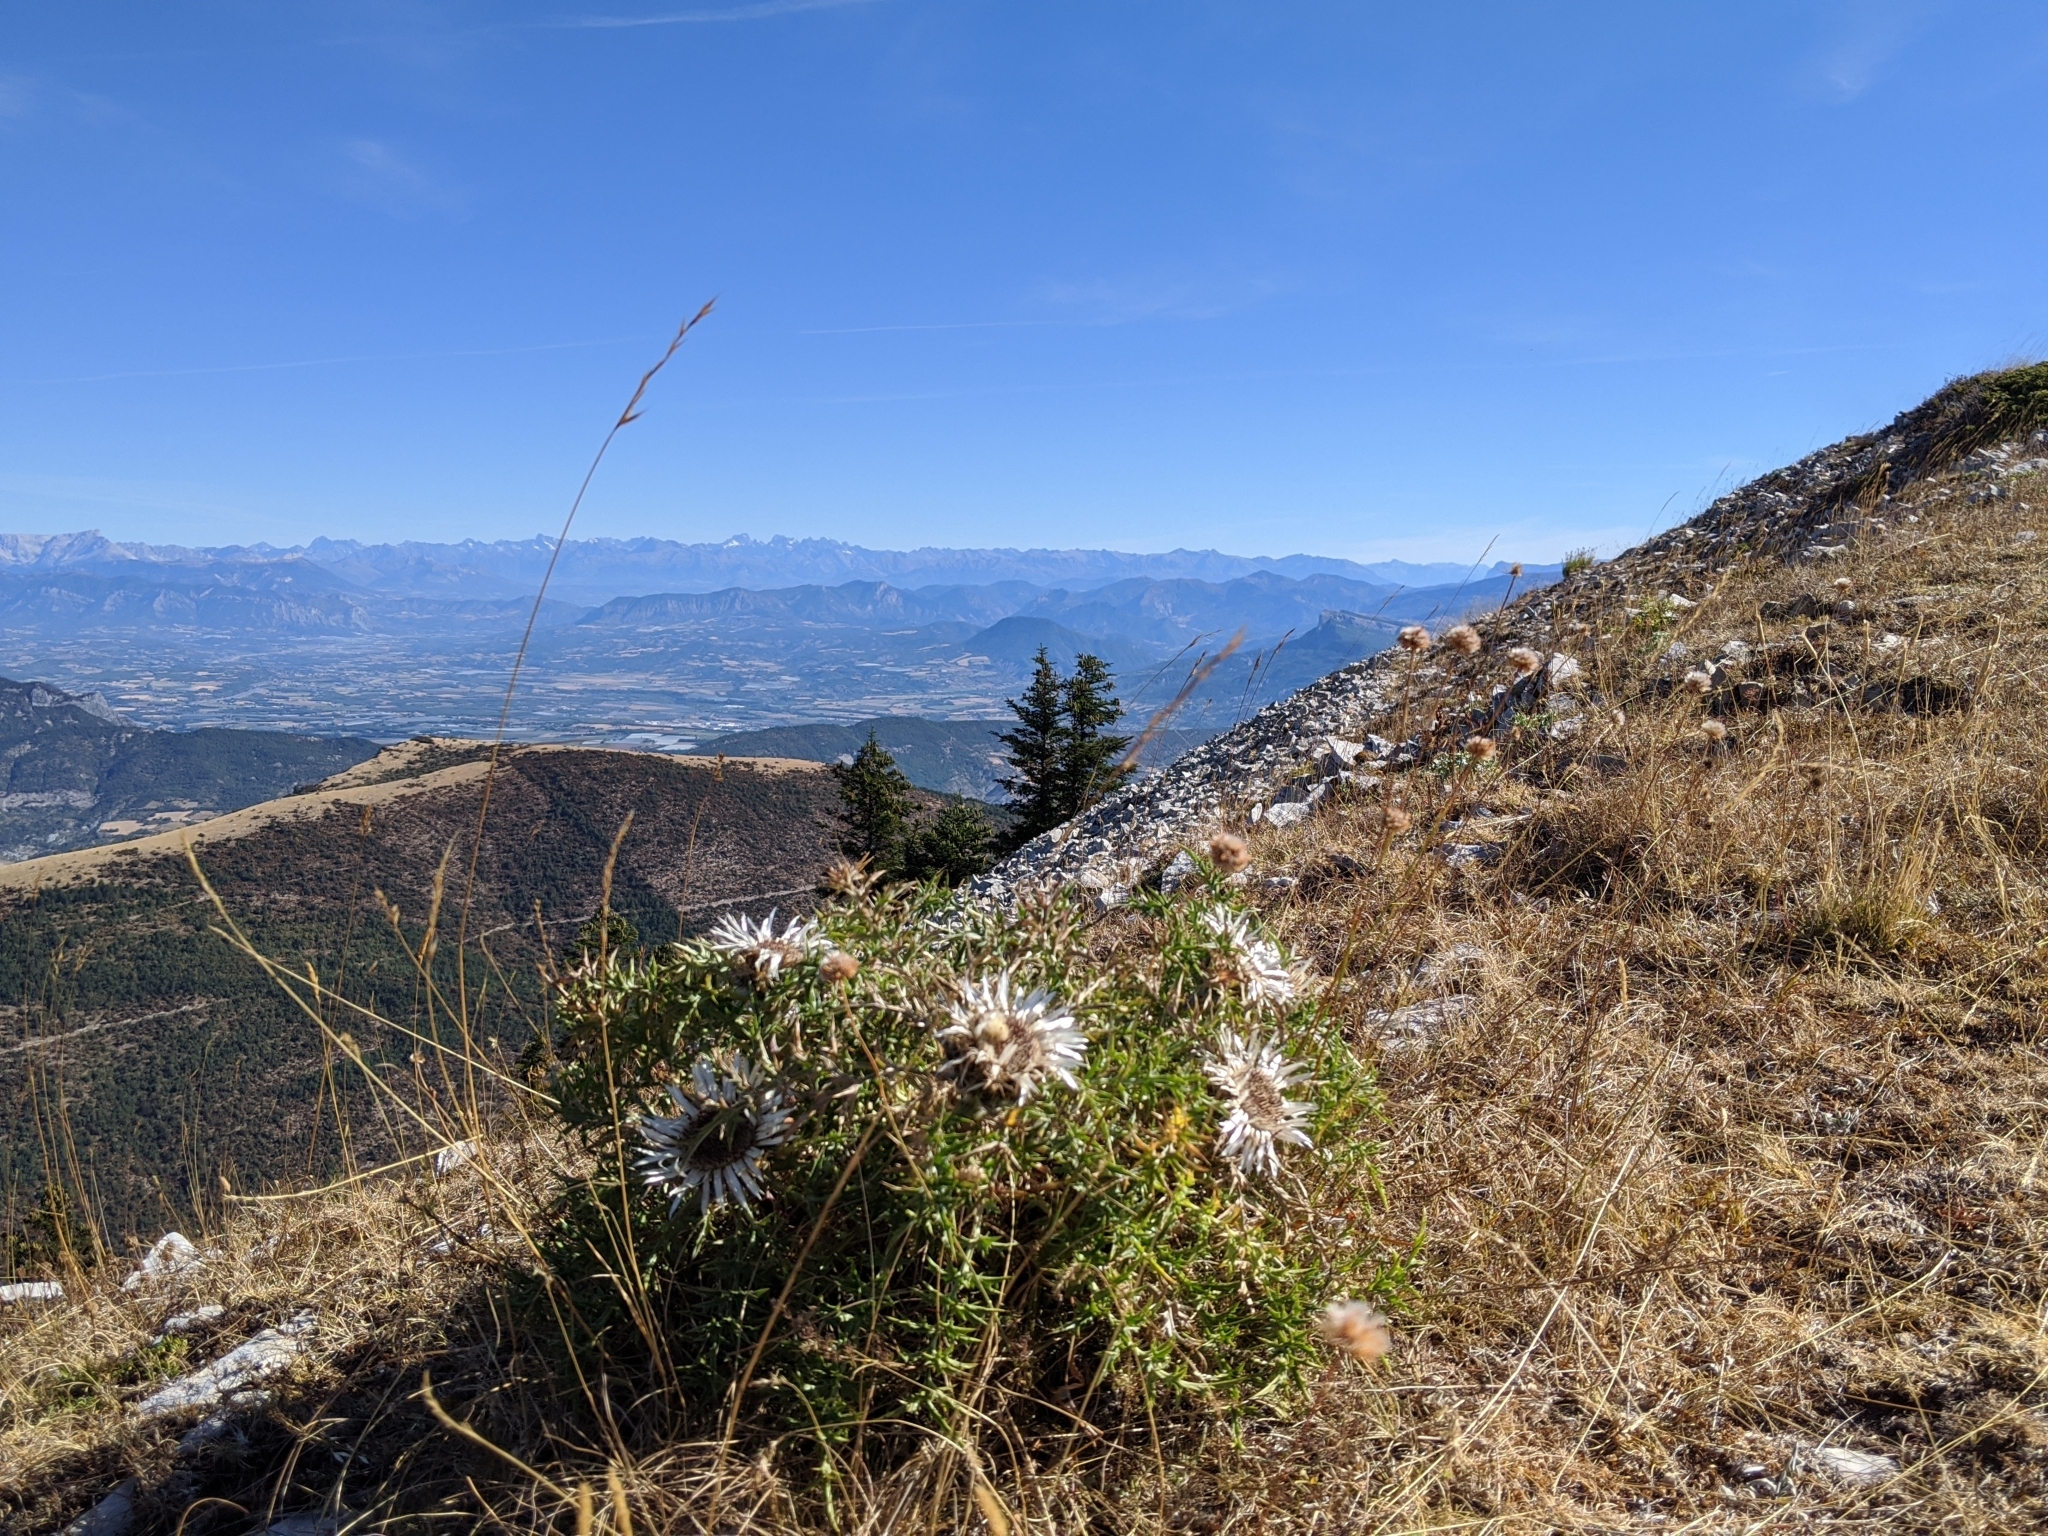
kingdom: Plantae
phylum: Tracheophyta
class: Magnoliopsida
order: Asterales
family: Asteraceae
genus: Carlina
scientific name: Carlina acaulis
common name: Stemless carline thistle
